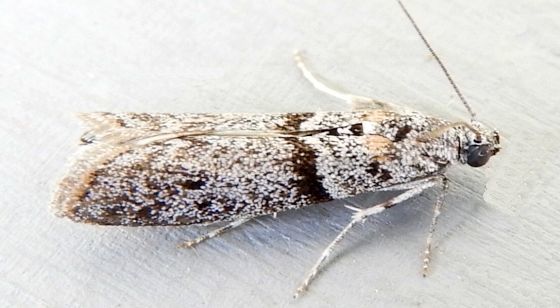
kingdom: Animalia
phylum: Arthropoda
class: Insecta
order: Lepidoptera
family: Pyralidae
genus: Myelopsis
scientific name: Myelopsis minutularia
